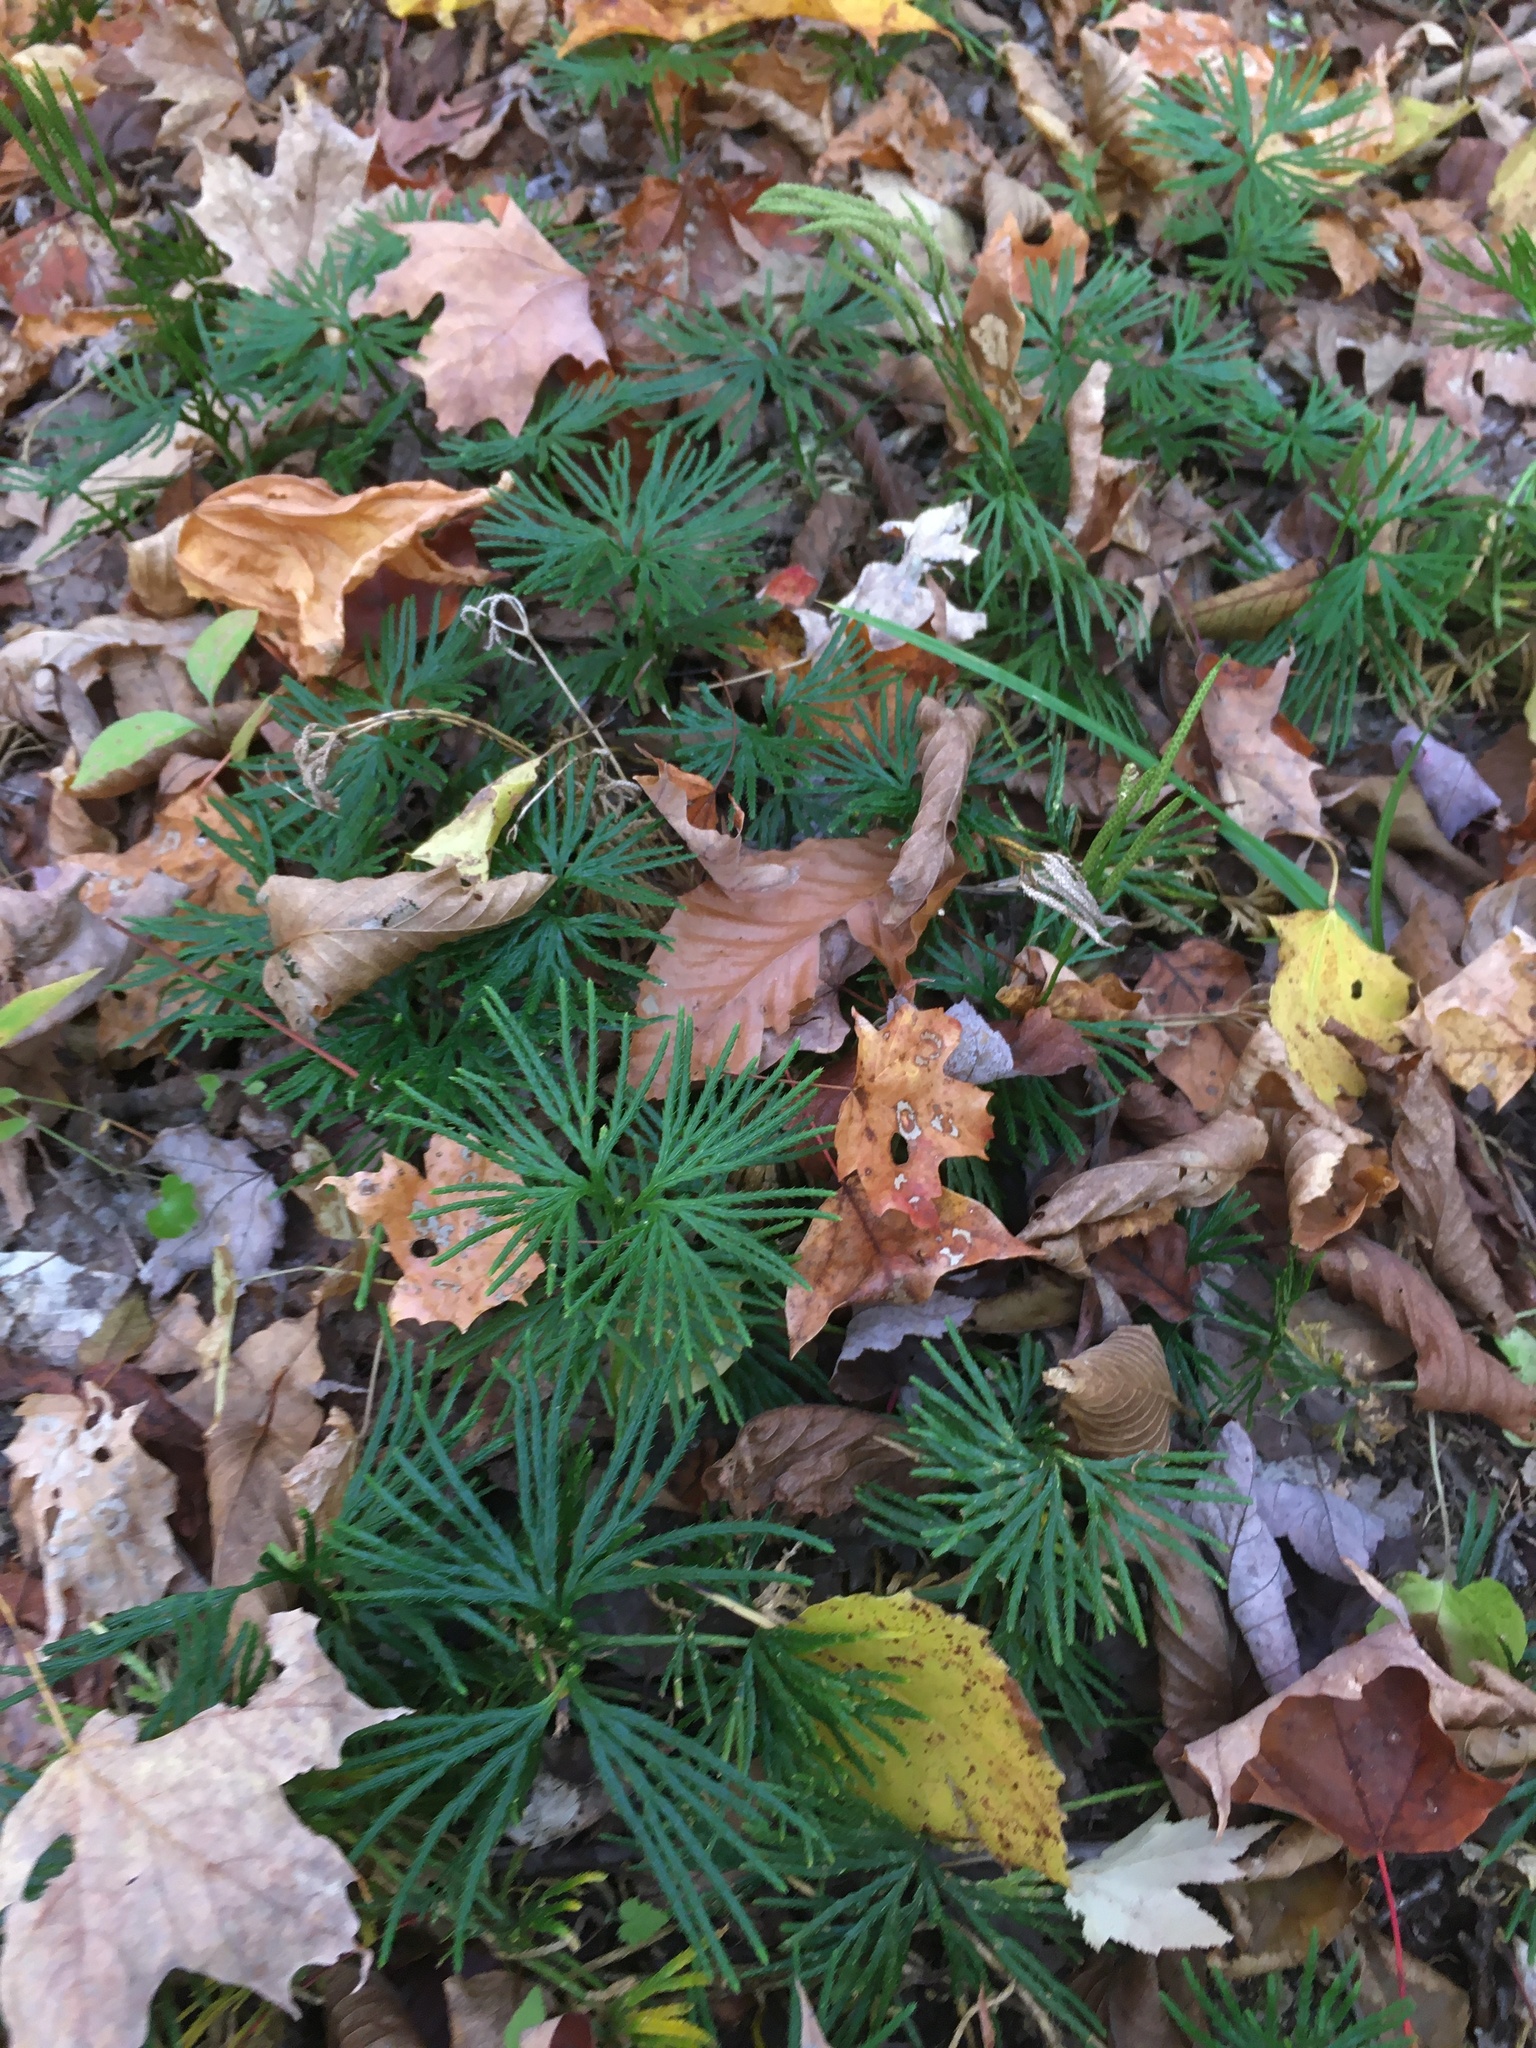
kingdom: Plantae
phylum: Tracheophyta
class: Lycopodiopsida
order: Lycopodiales
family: Lycopodiaceae
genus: Diphasiastrum
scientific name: Diphasiastrum digitatum
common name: Southern running-pine
